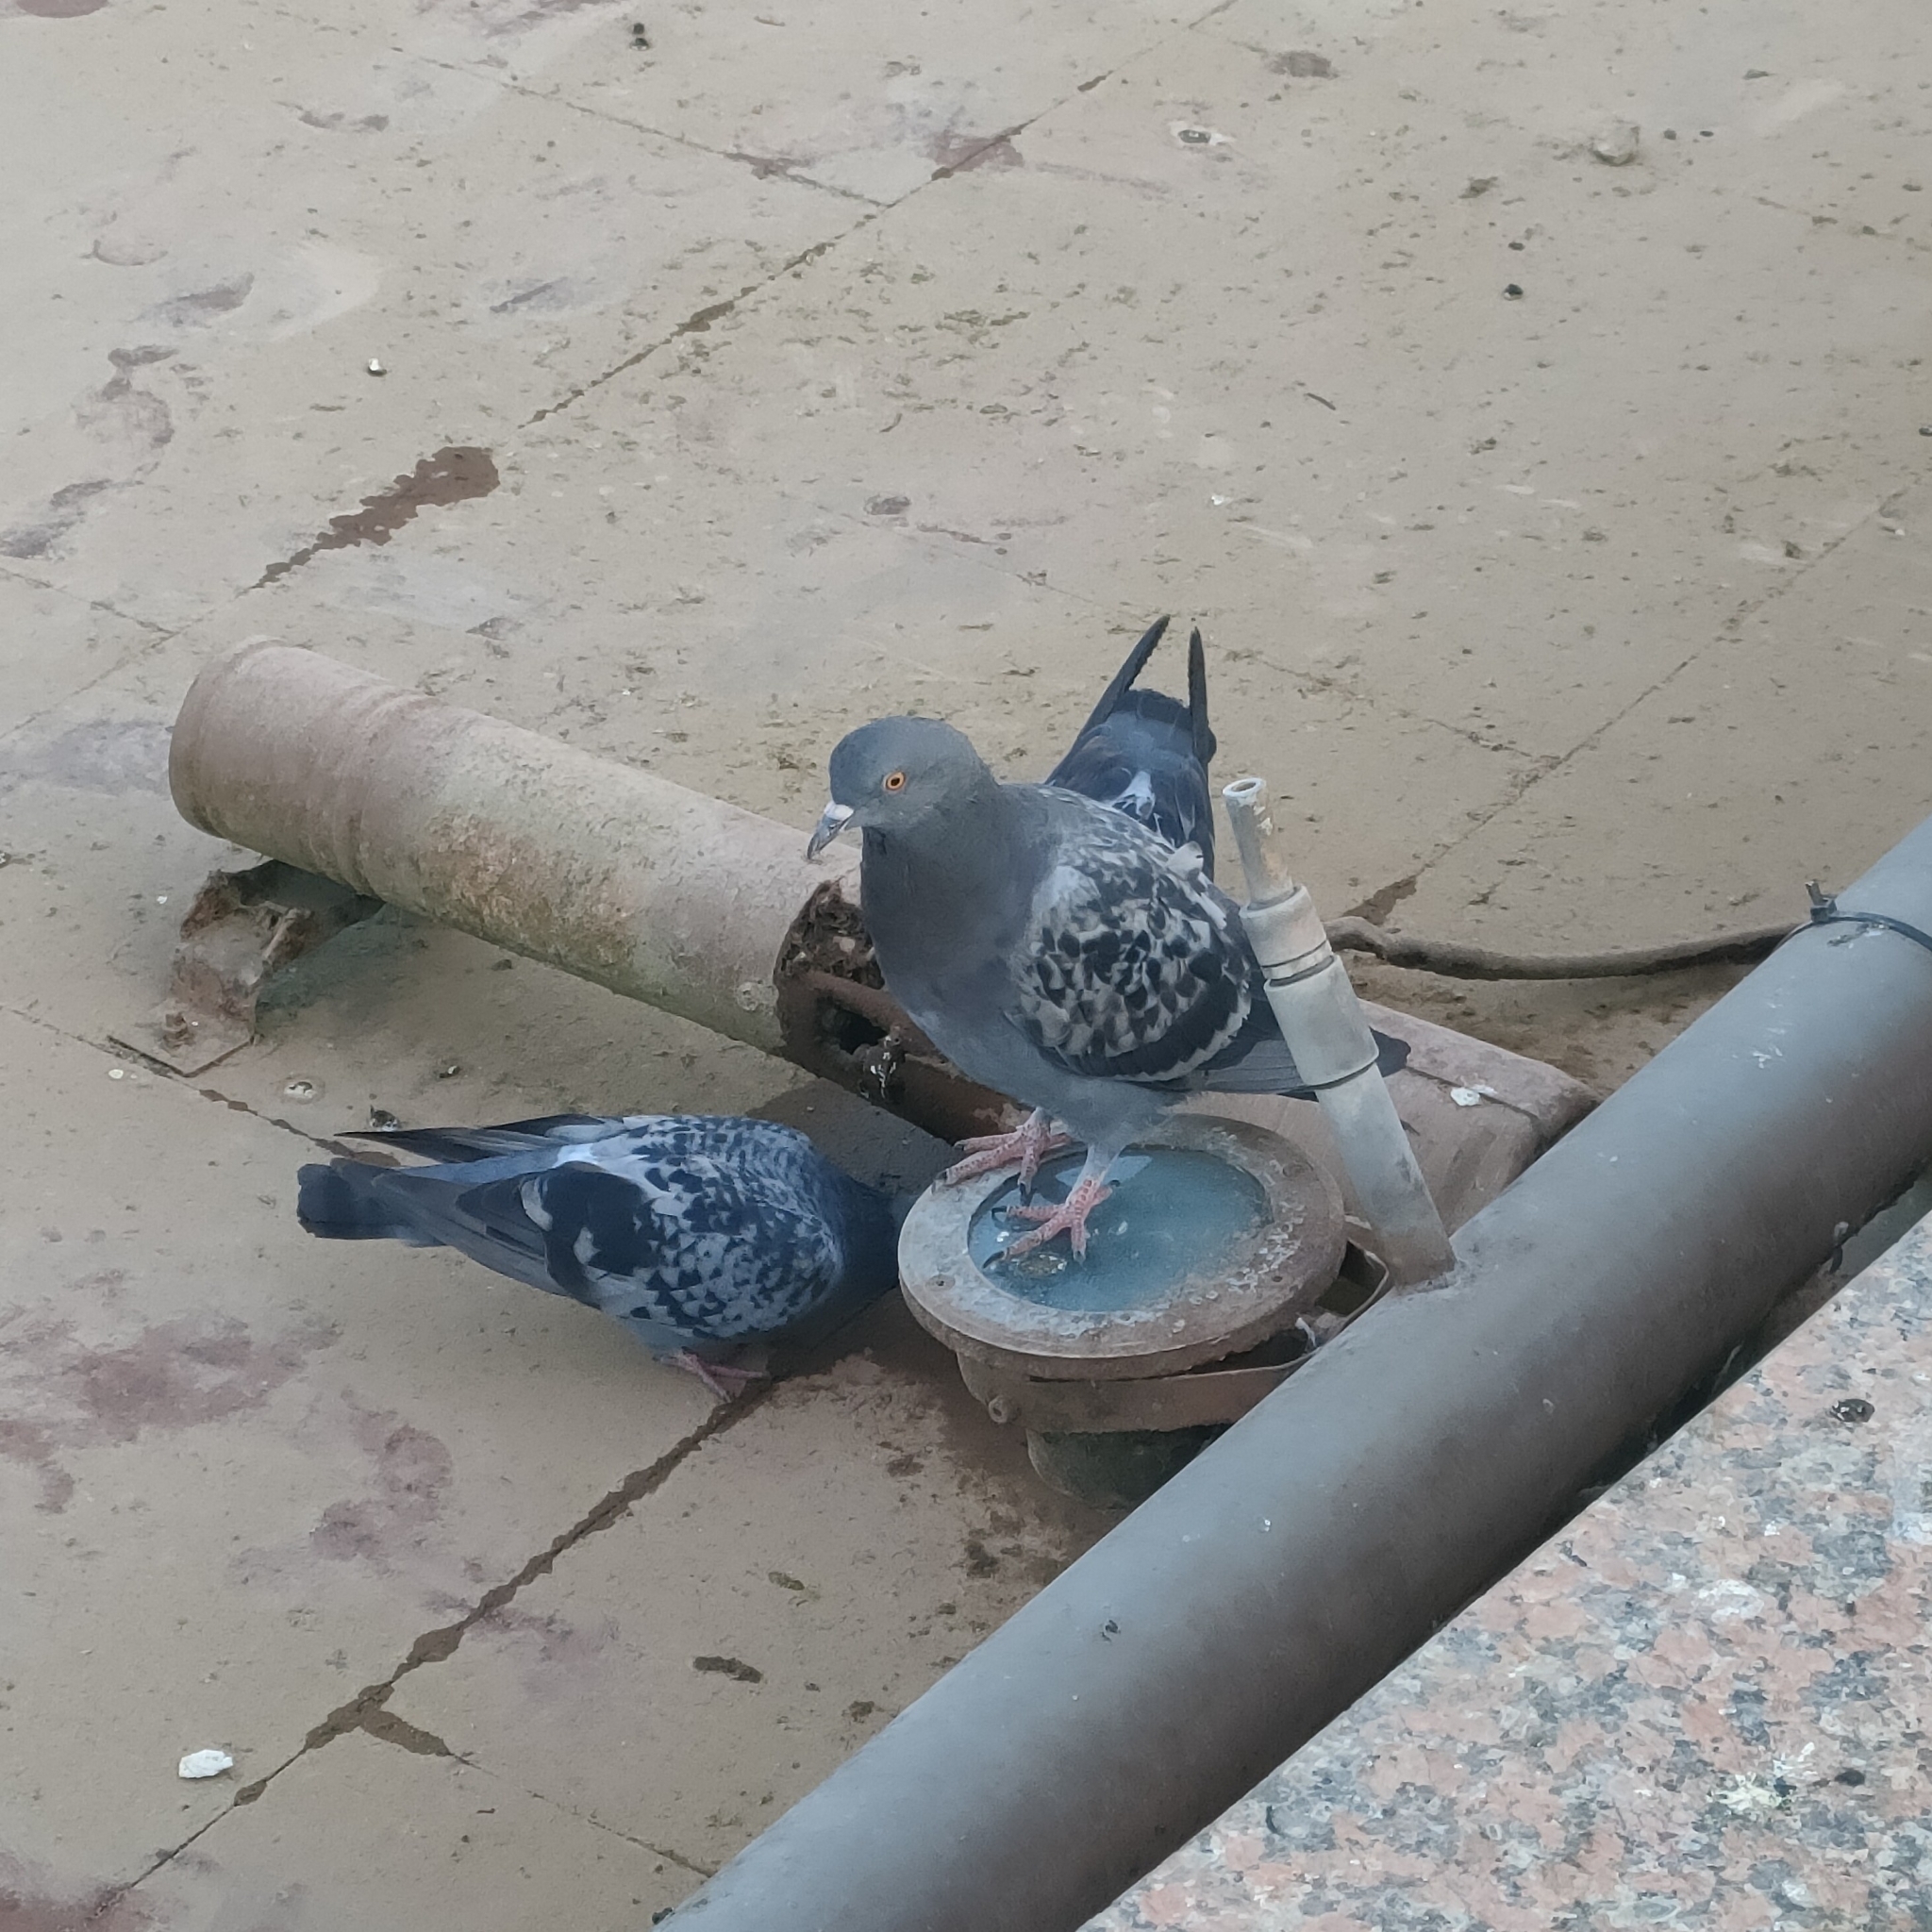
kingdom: Animalia
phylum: Chordata
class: Aves
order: Columbiformes
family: Columbidae
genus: Columba
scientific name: Columba livia
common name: Rock pigeon
